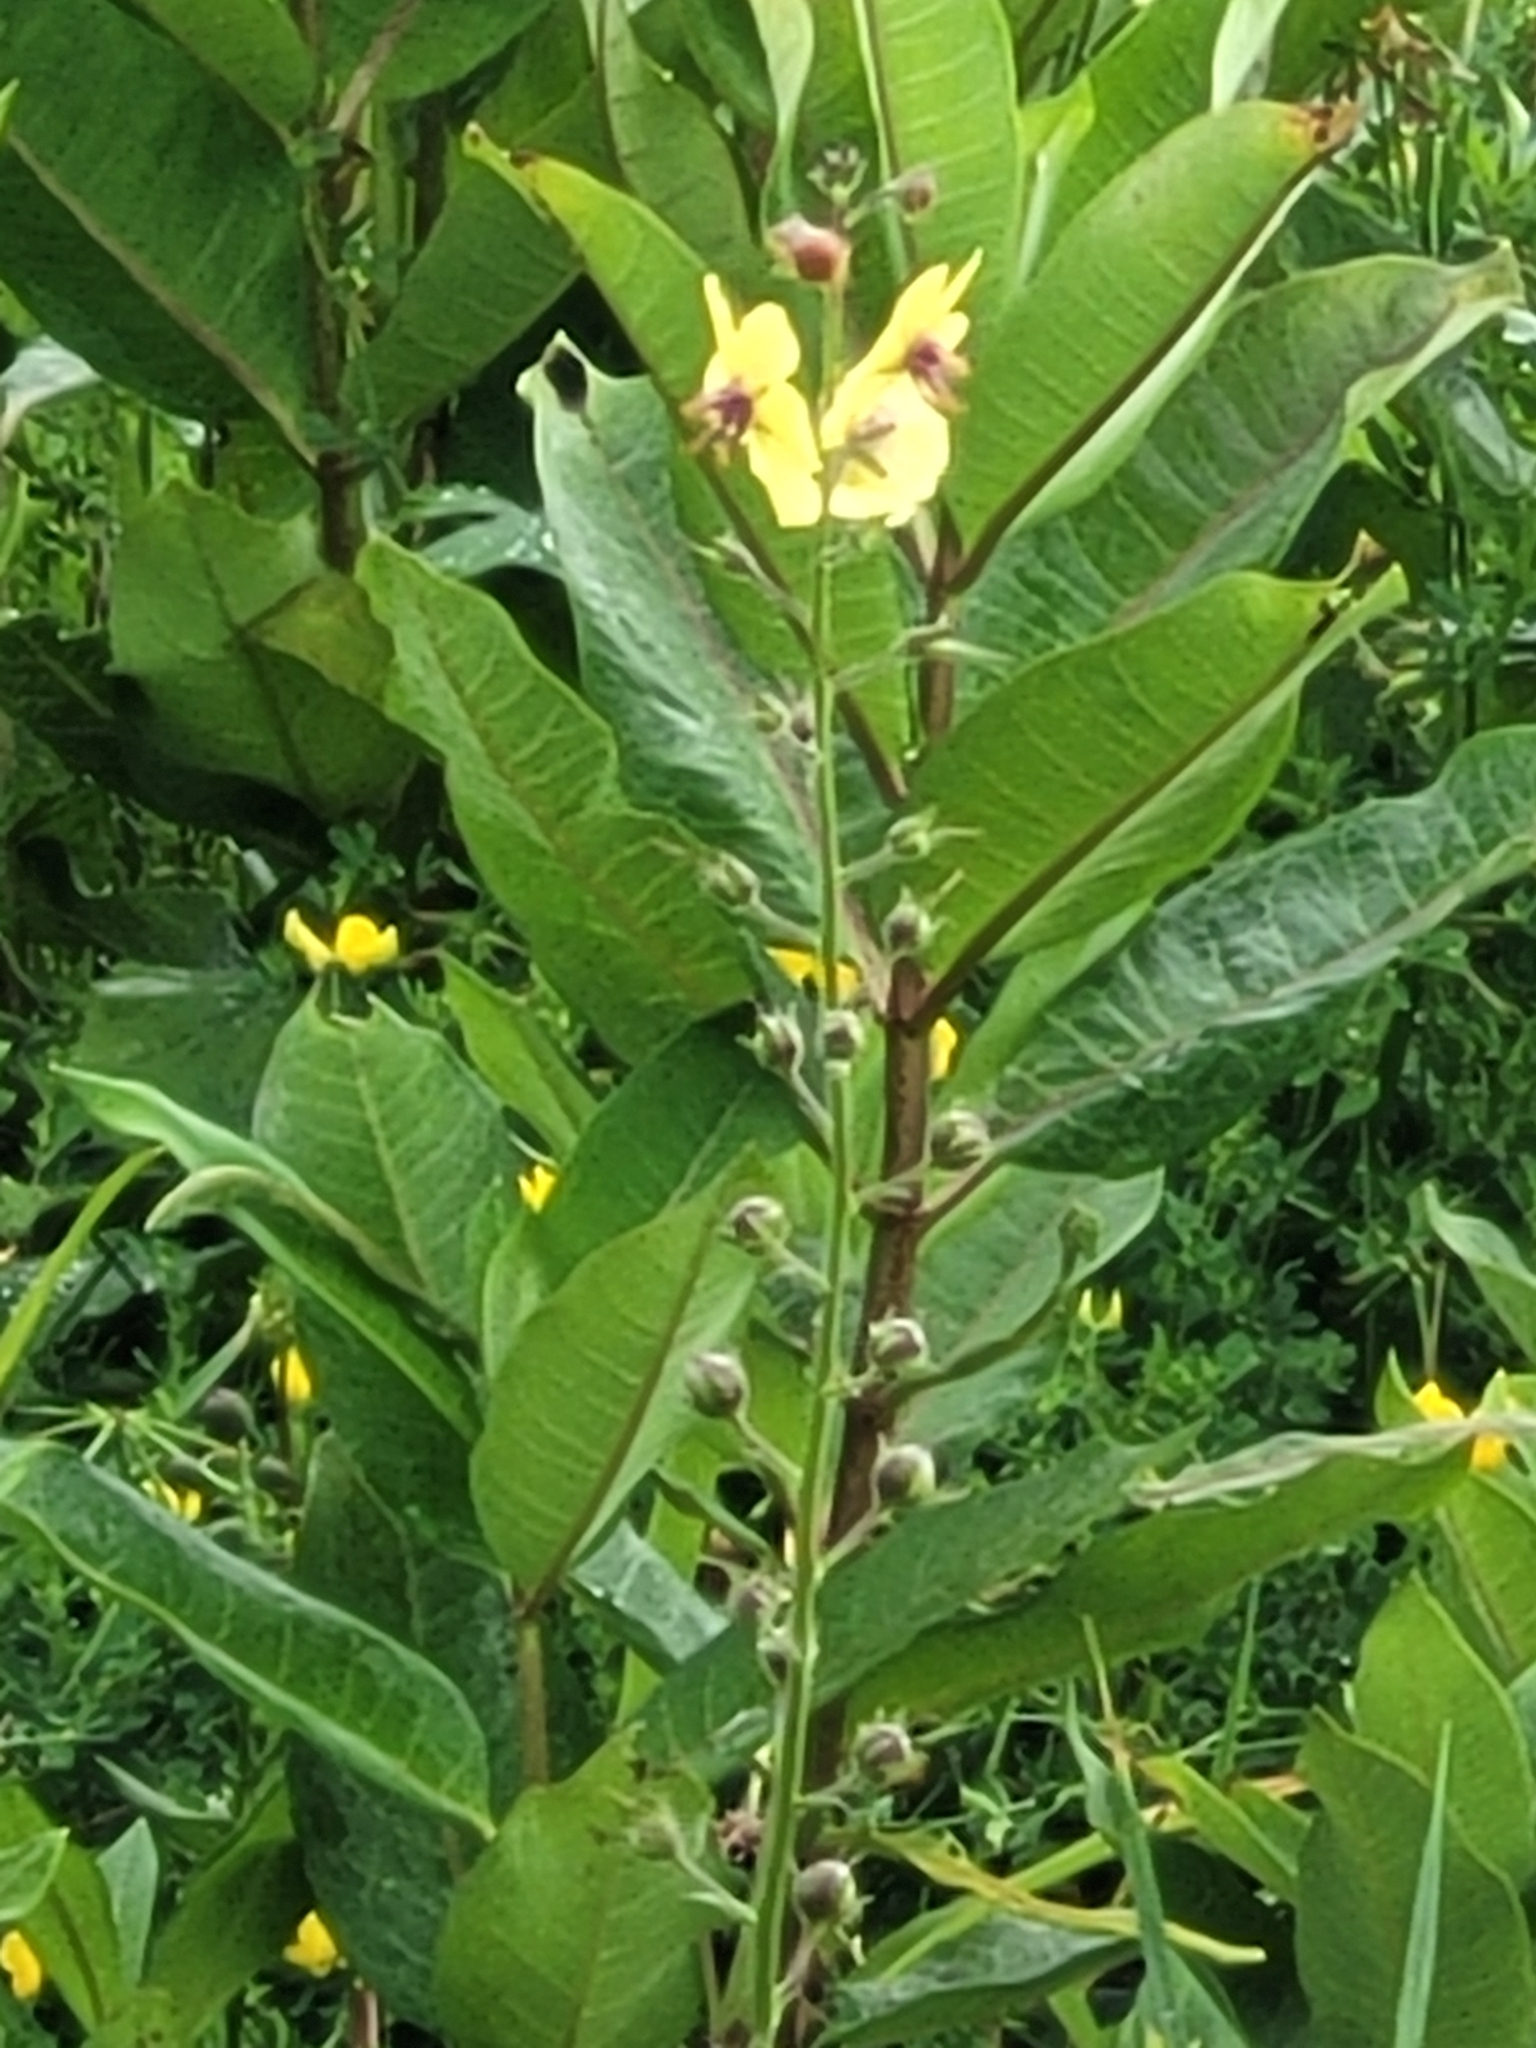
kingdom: Plantae
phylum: Tracheophyta
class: Magnoliopsida
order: Lamiales
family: Scrophulariaceae
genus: Verbascum
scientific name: Verbascum blattaria
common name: Moth mullein
